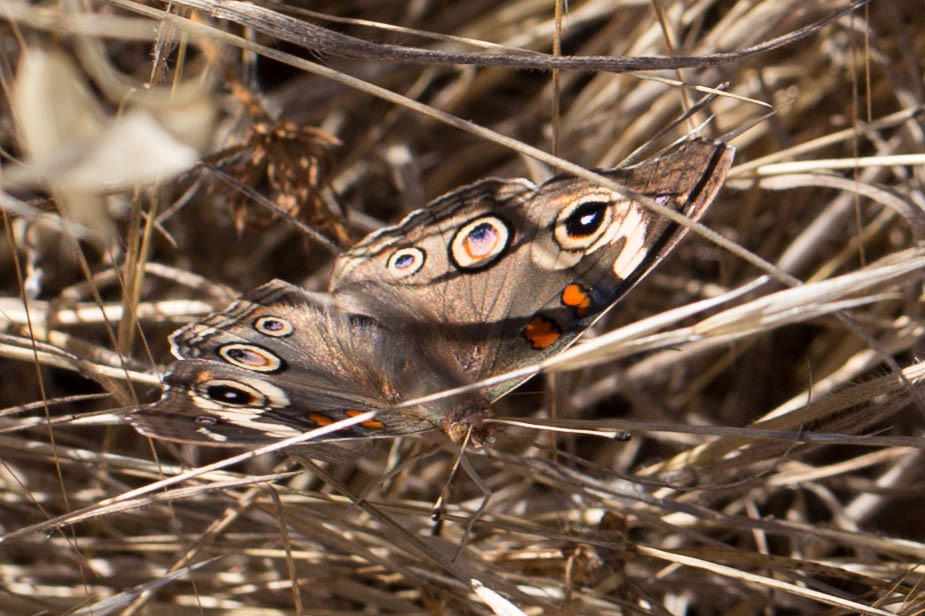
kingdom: Animalia
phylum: Arthropoda
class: Insecta
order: Lepidoptera
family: Nymphalidae
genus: Junonia
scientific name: Junonia grisea
